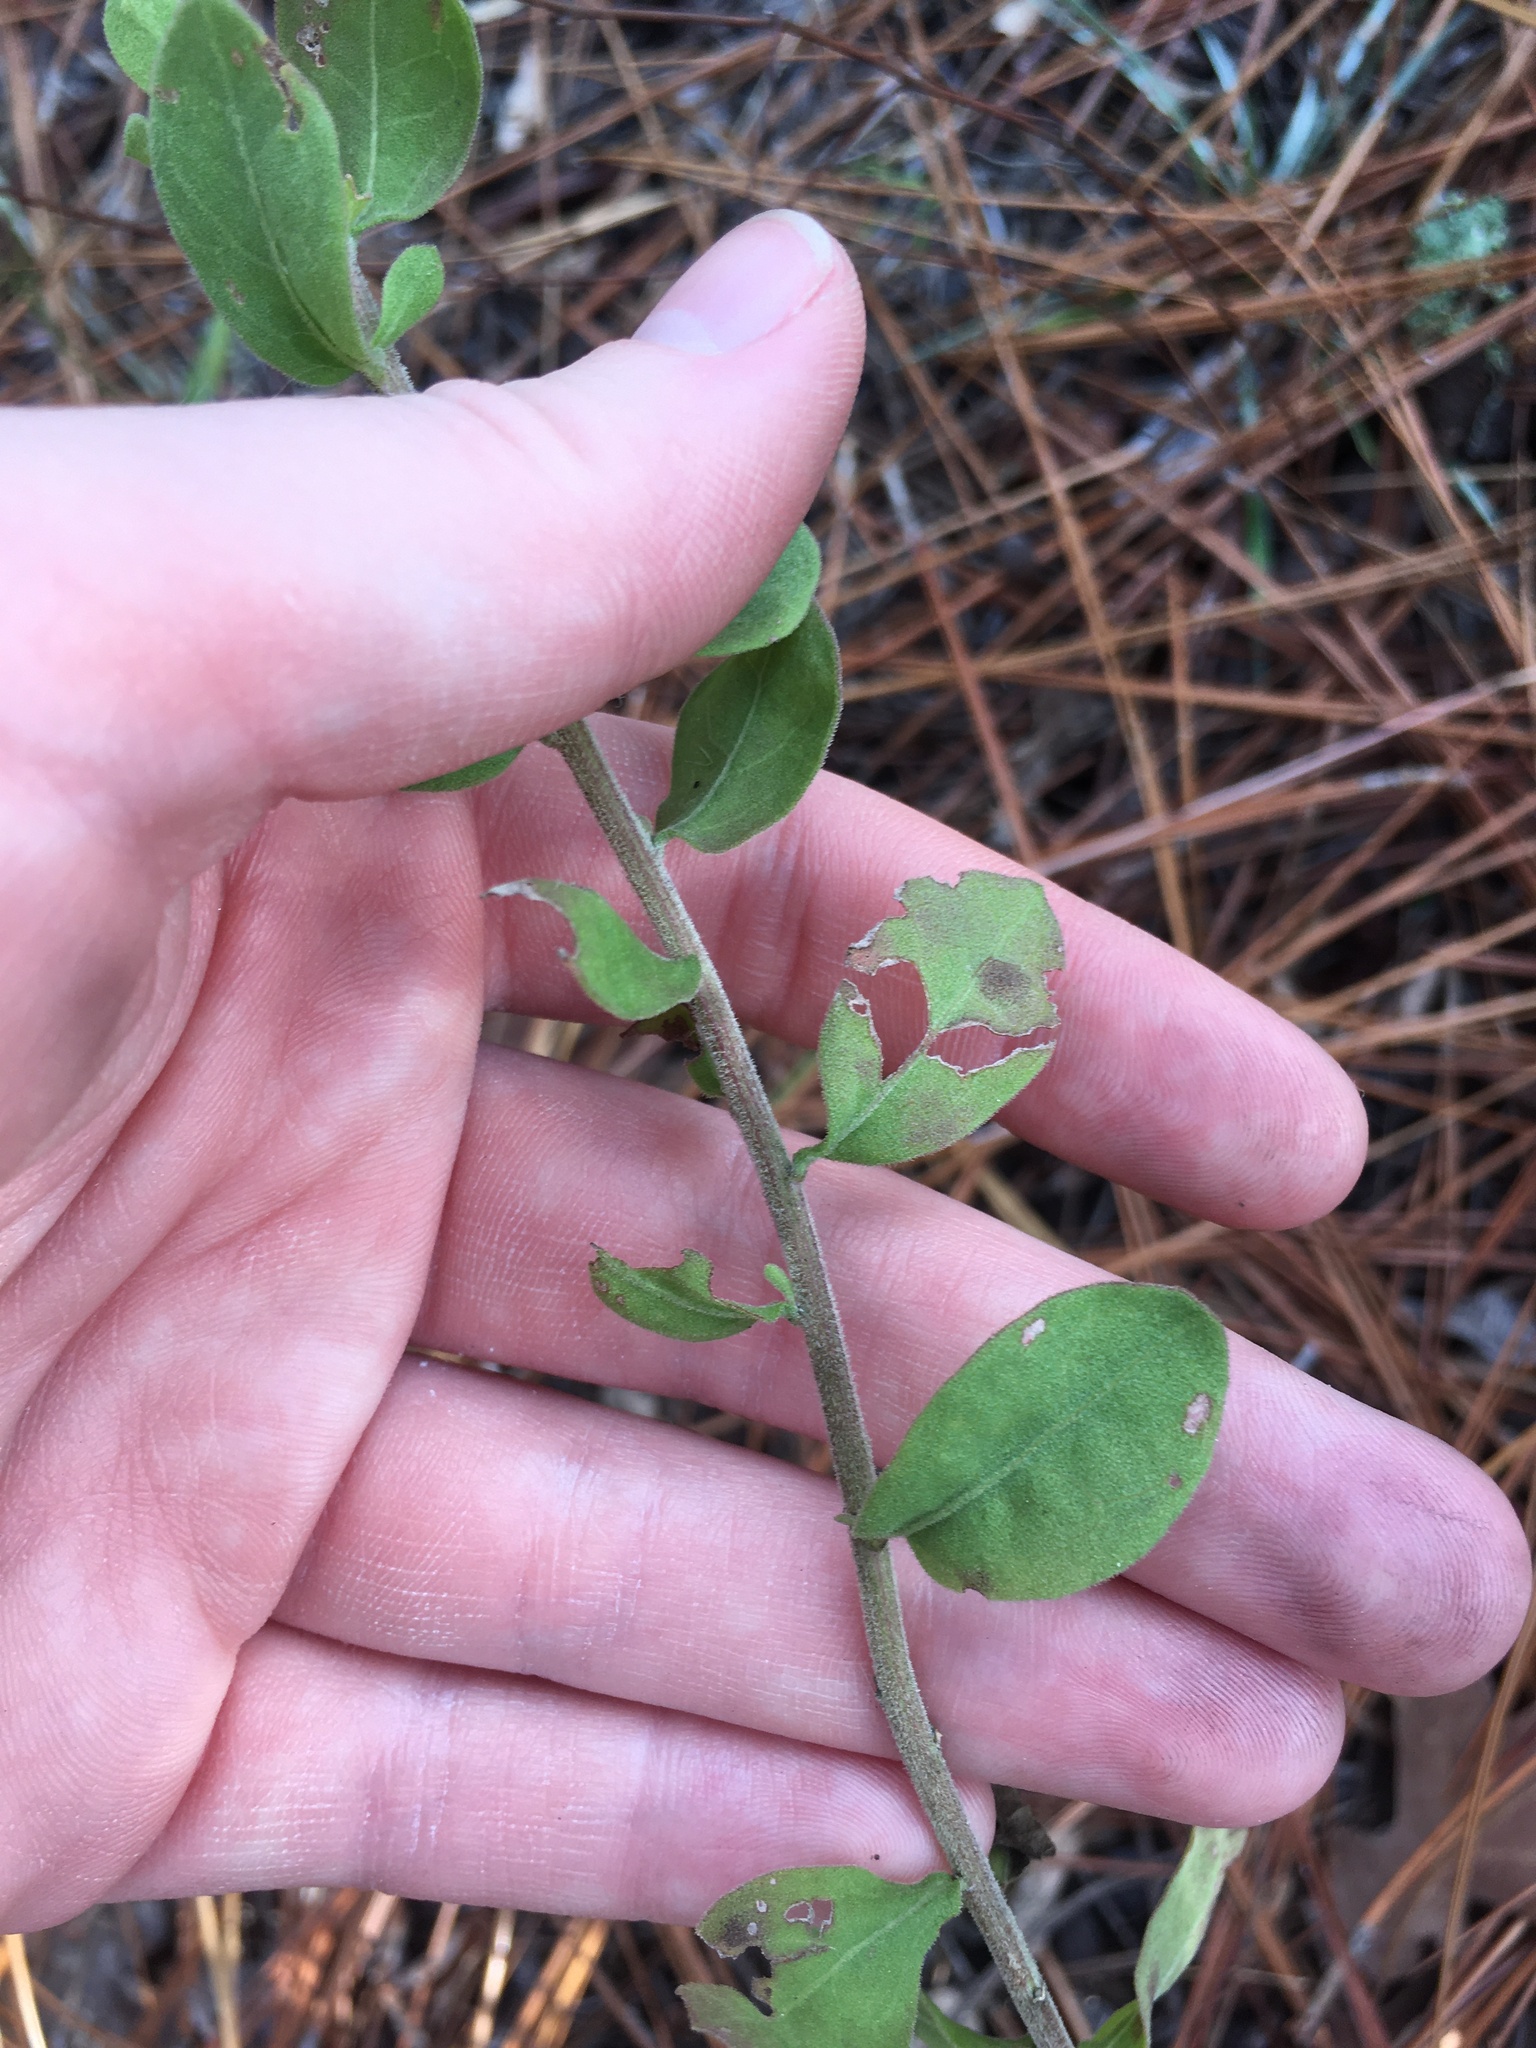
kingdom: Plantae
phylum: Tracheophyta
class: Magnoliopsida
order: Asterales
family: Asteraceae
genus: Sericocarpus
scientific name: Sericocarpus tortifolius
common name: Dixie aster
